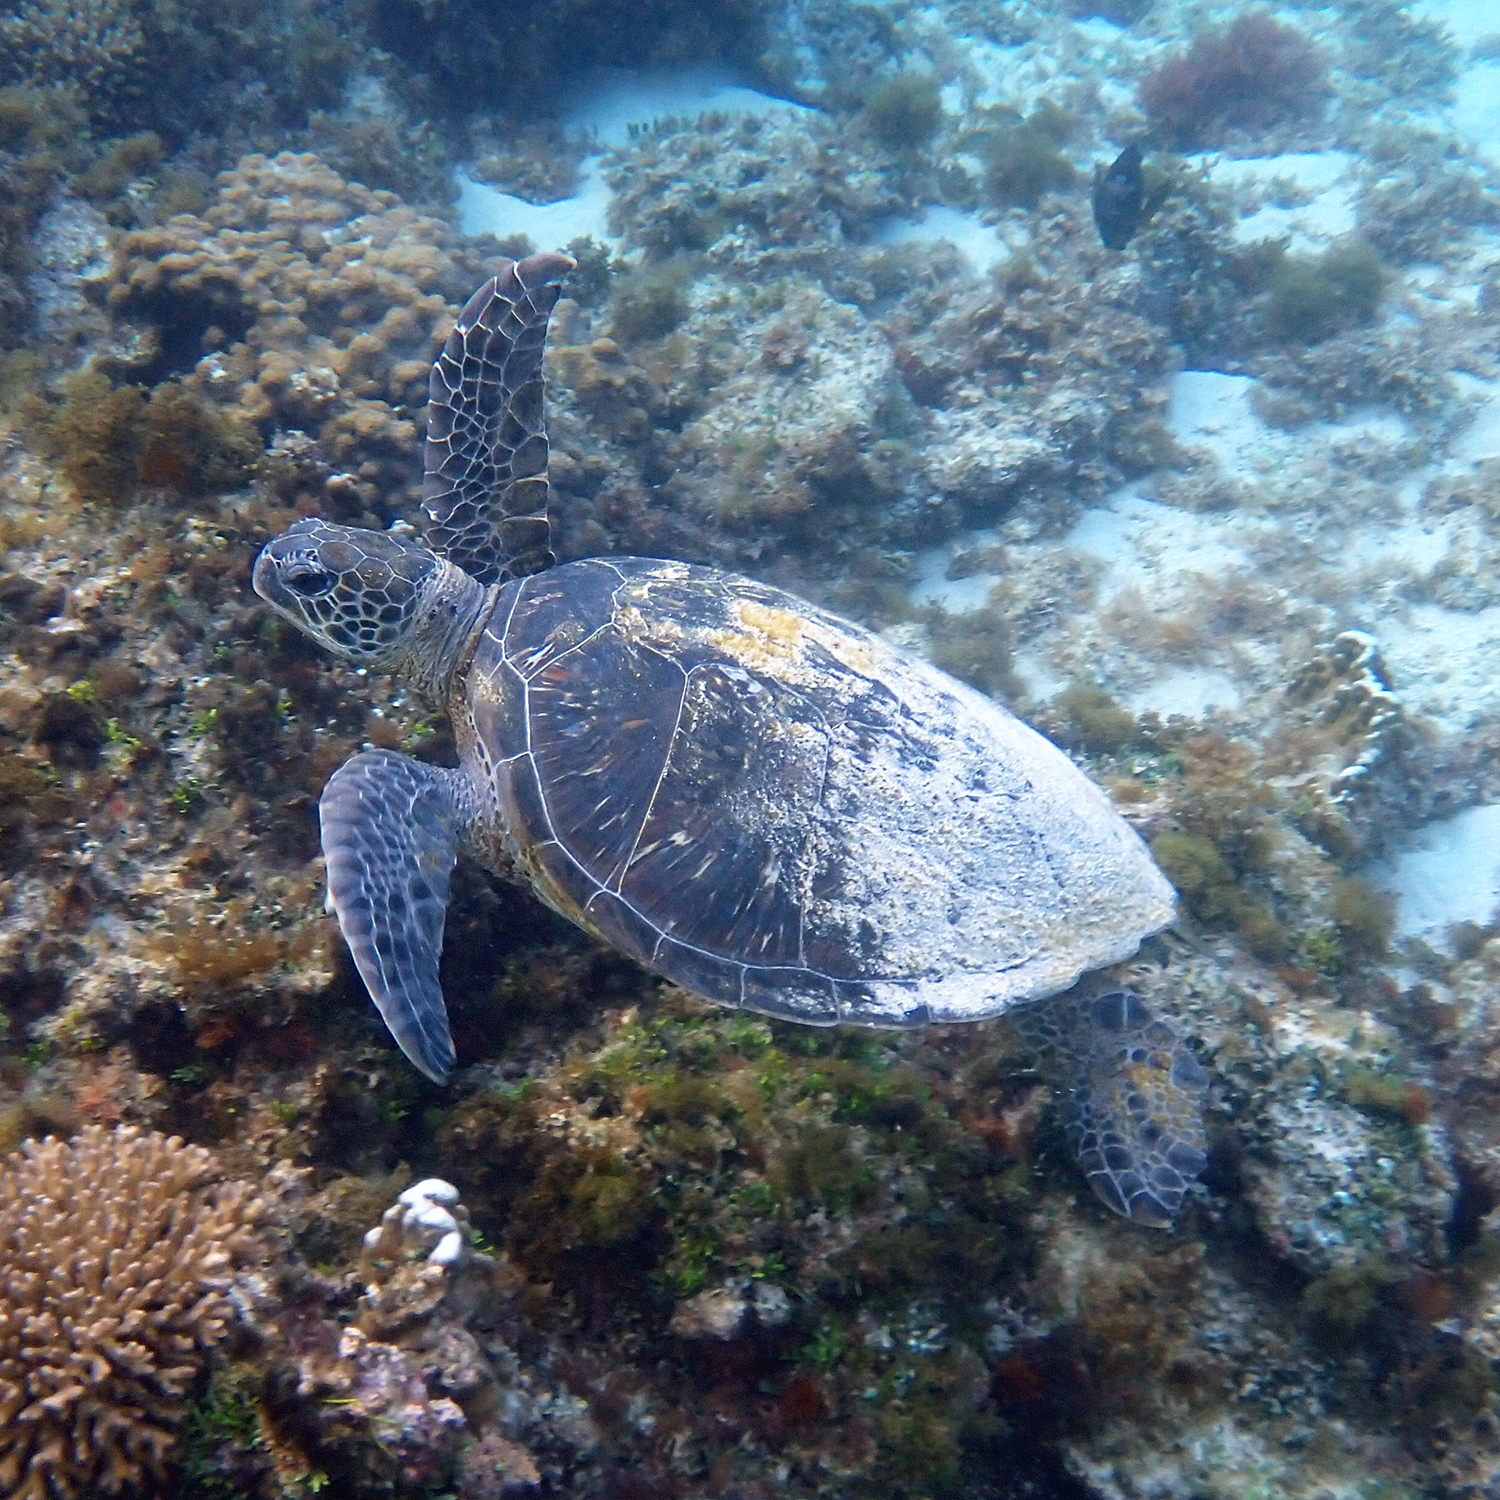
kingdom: Animalia
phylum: Chordata
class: Testudines
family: Cheloniidae
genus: Chelonia
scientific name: Chelonia mydas
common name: Green turtle
